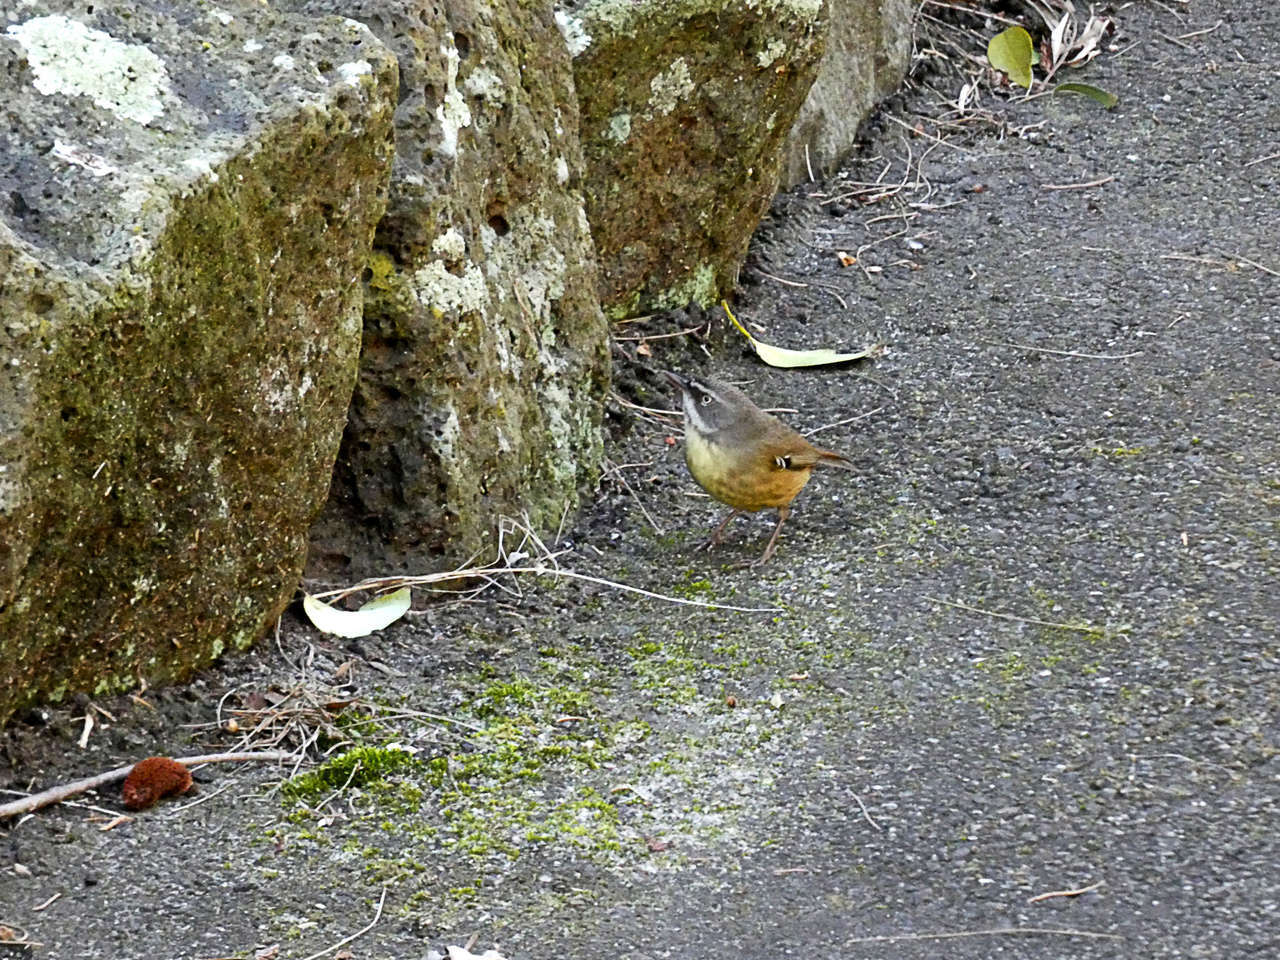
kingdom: Animalia
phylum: Chordata
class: Aves
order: Passeriformes
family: Acanthizidae
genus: Sericornis
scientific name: Sericornis frontalis
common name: White-browed scrubwren
